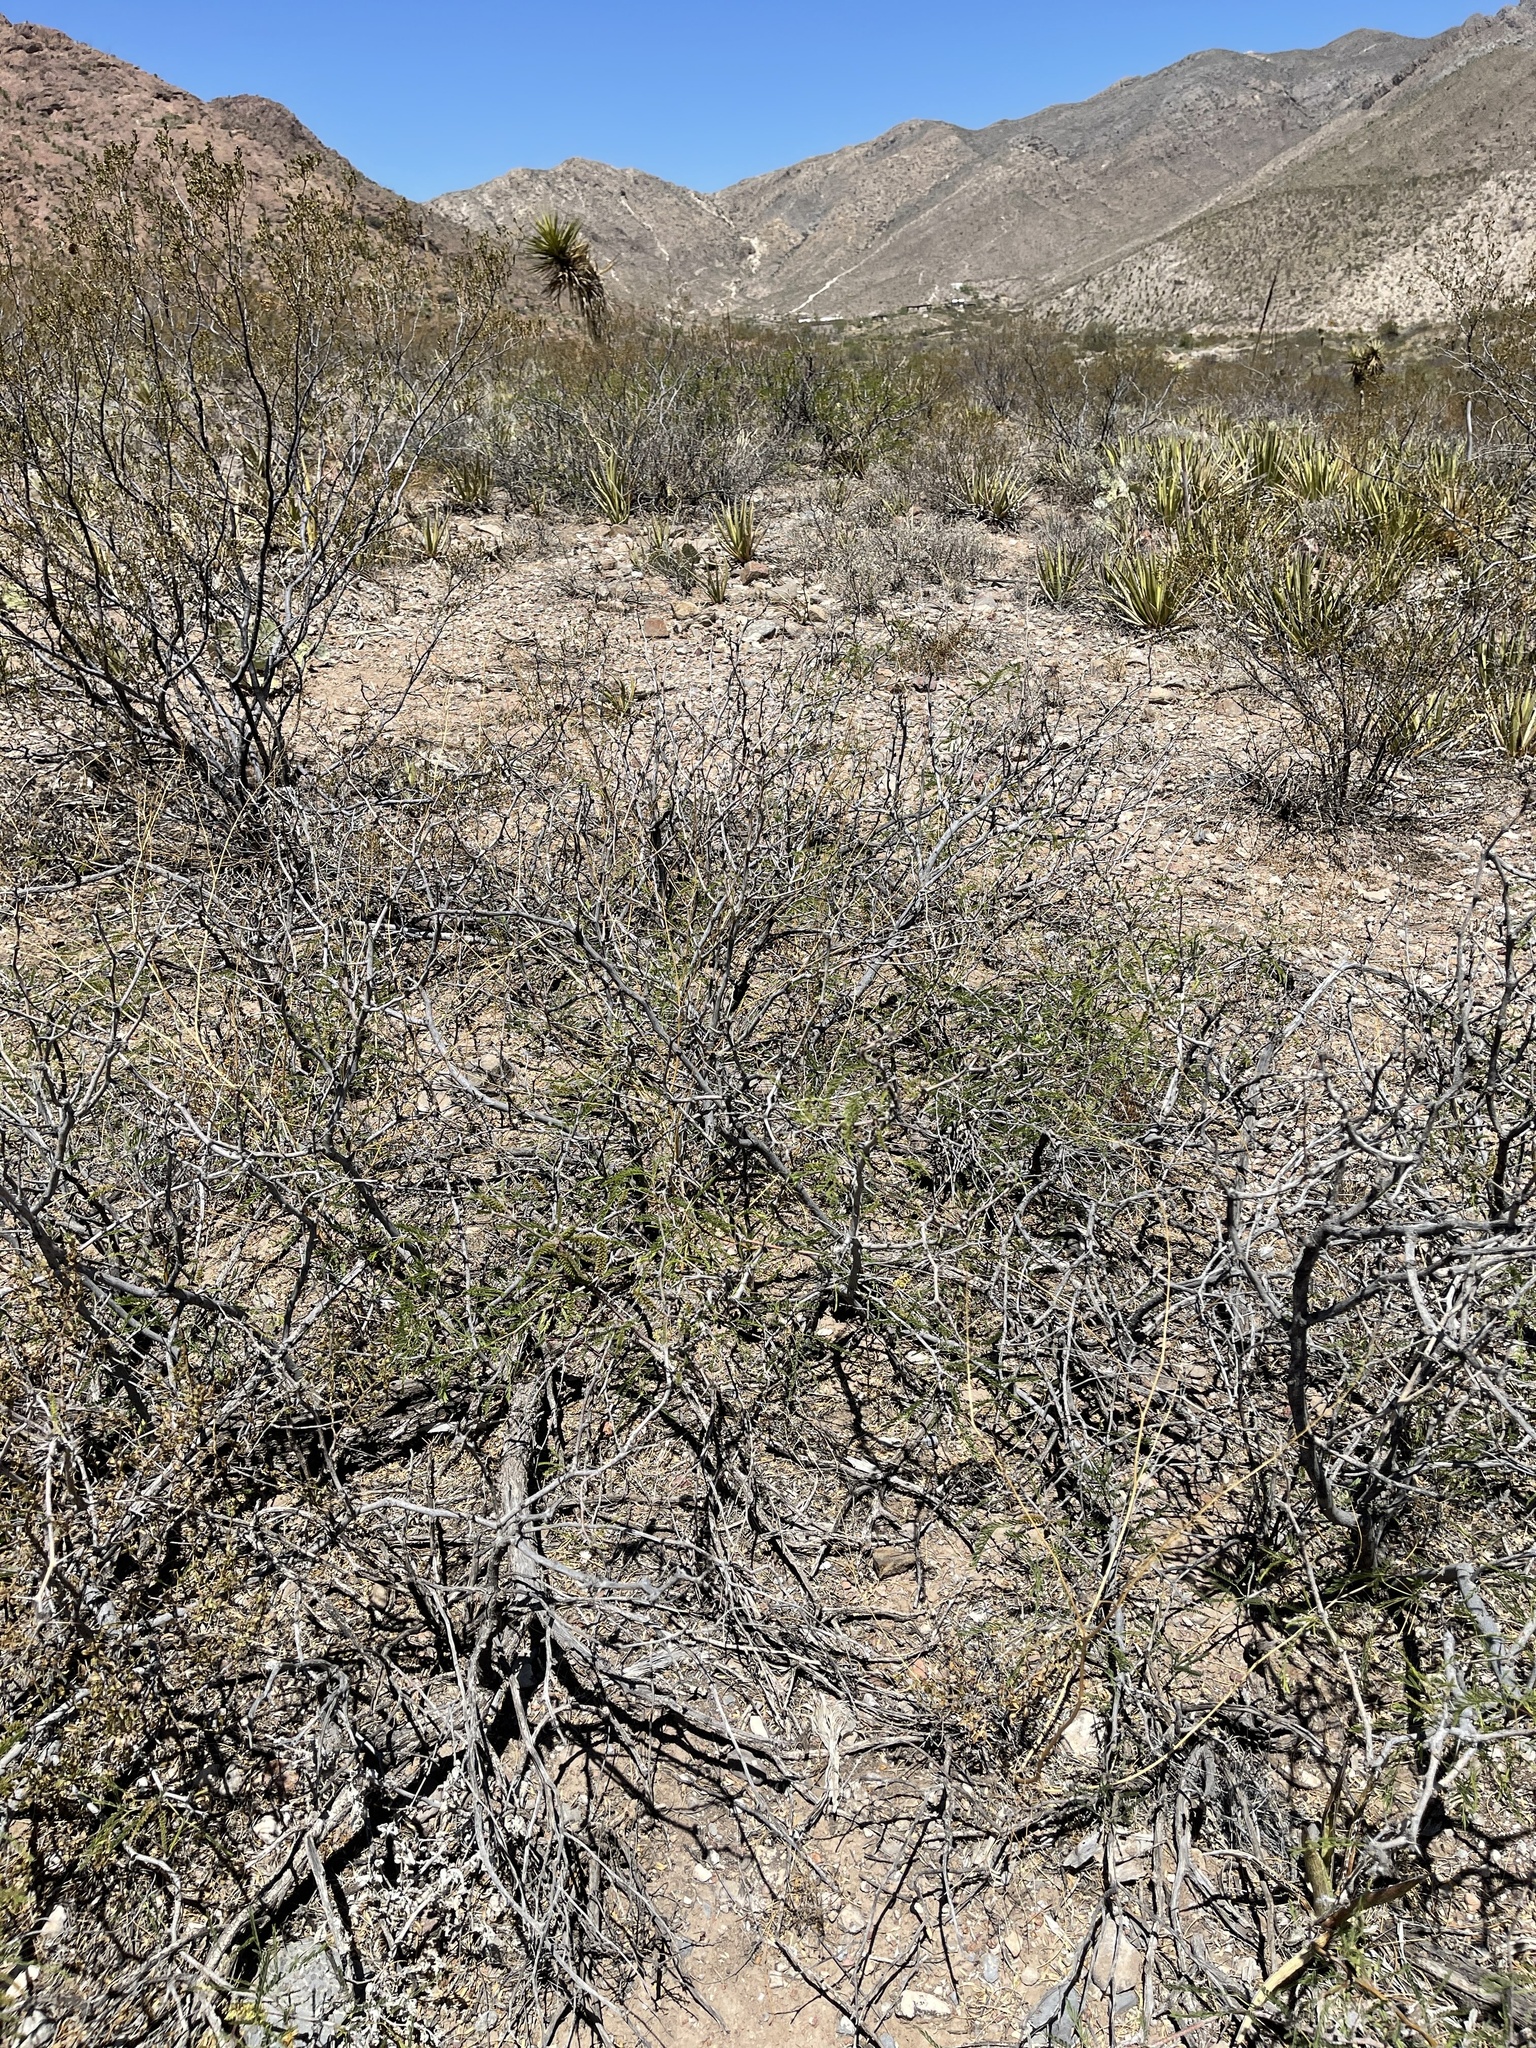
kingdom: Plantae
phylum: Tracheophyta
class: Magnoliopsida
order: Fabales
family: Fabaceae
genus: Prosopis
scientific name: Prosopis glandulosa
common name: Honey mesquite
